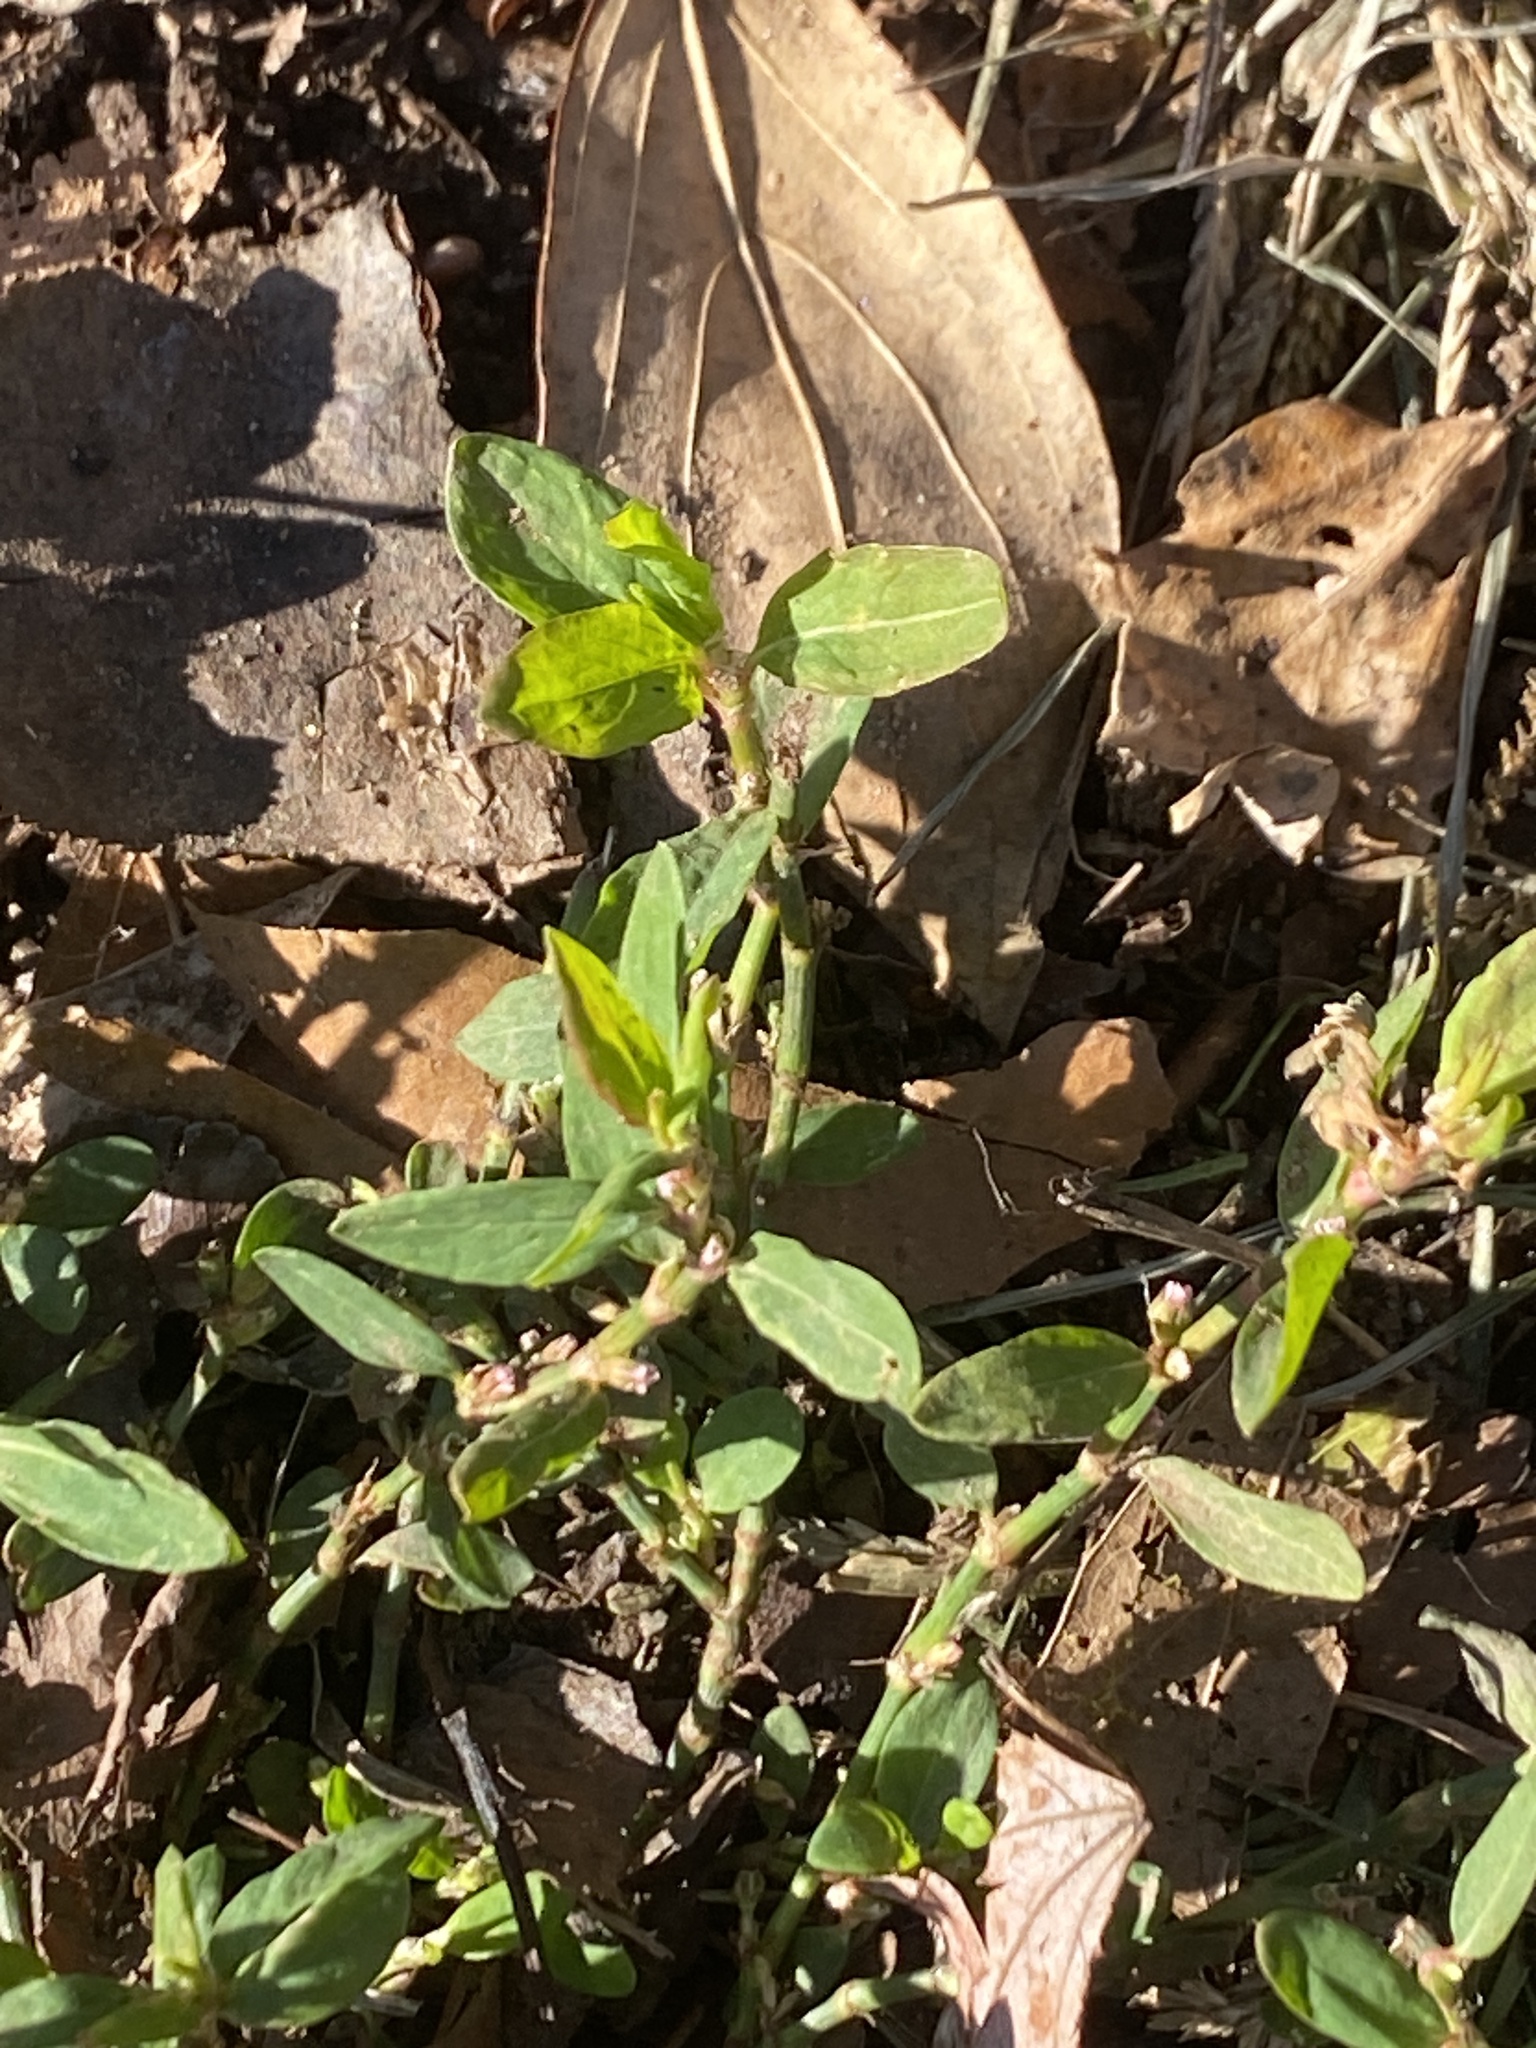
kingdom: Plantae
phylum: Tracheophyta
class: Magnoliopsida
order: Caryophyllales
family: Polygonaceae
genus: Polygonum
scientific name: Polygonum aviculare
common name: Prostrate knotweed
